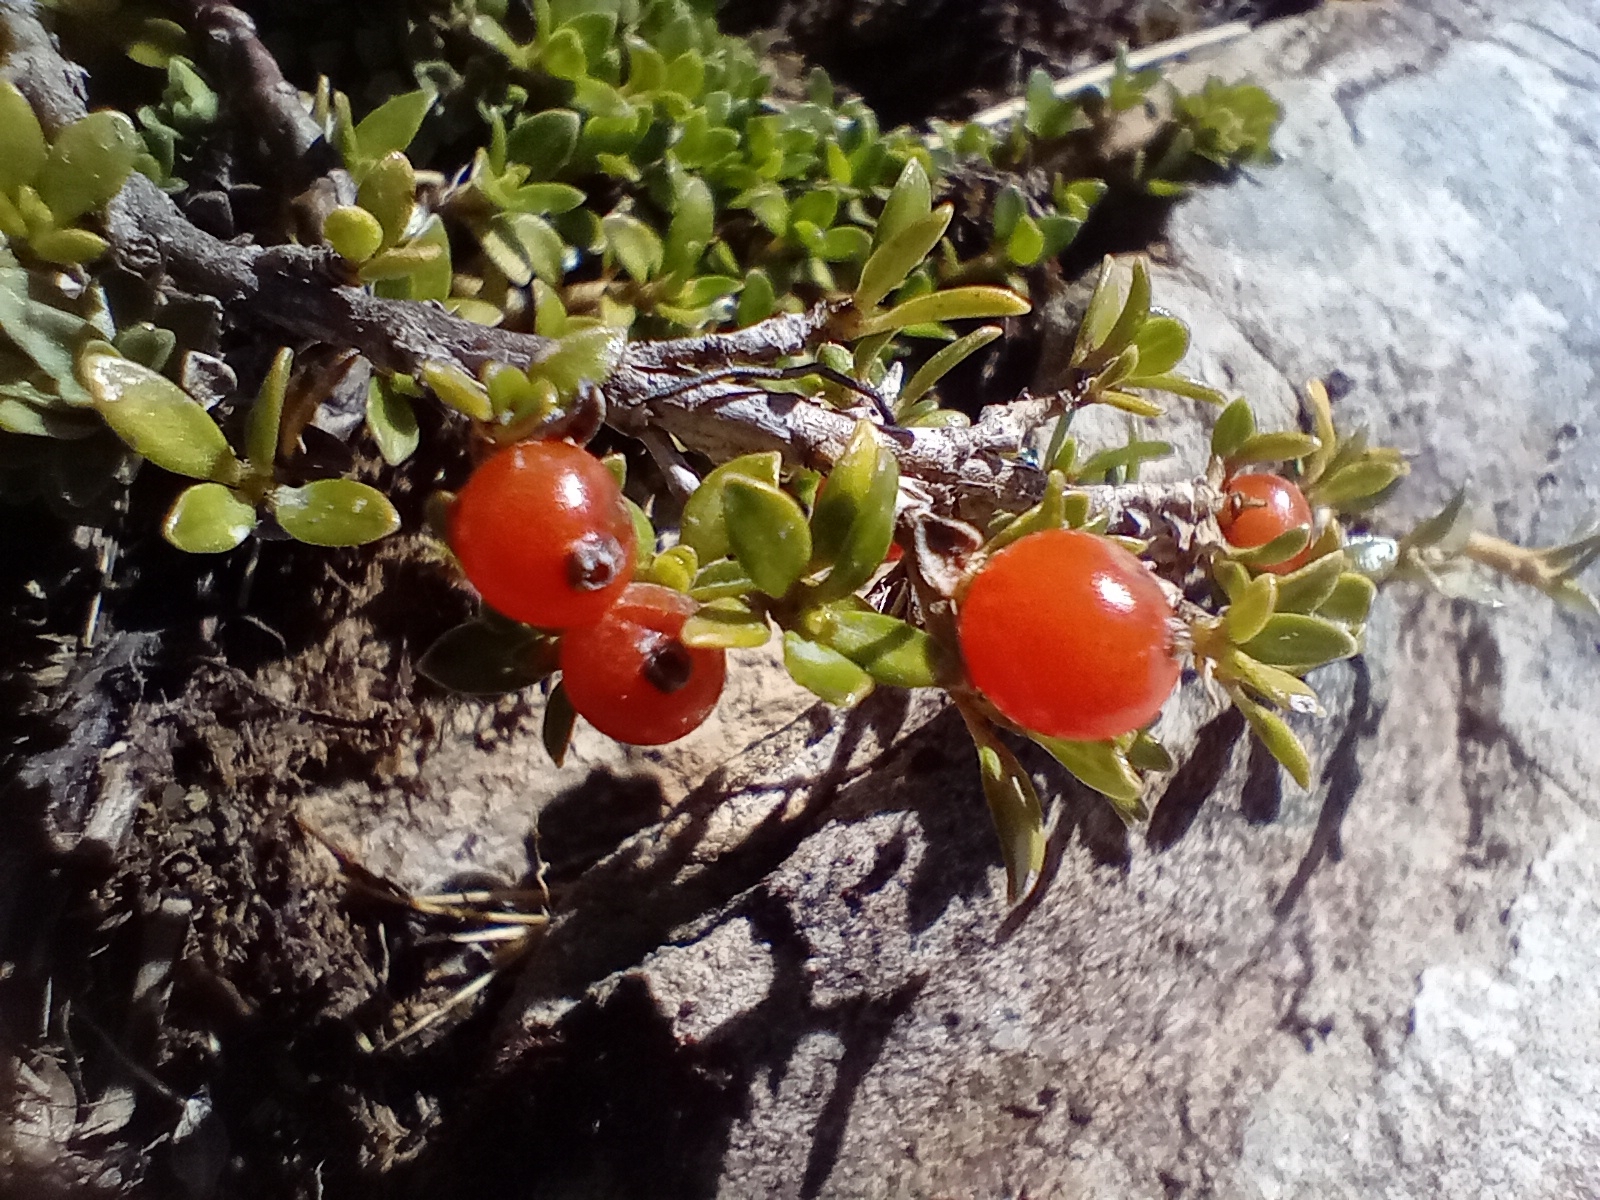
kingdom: Plantae
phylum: Tracheophyta
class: Magnoliopsida
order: Gentianales
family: Rubiaceae
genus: Coprosma
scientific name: Coprosma perpusilla
